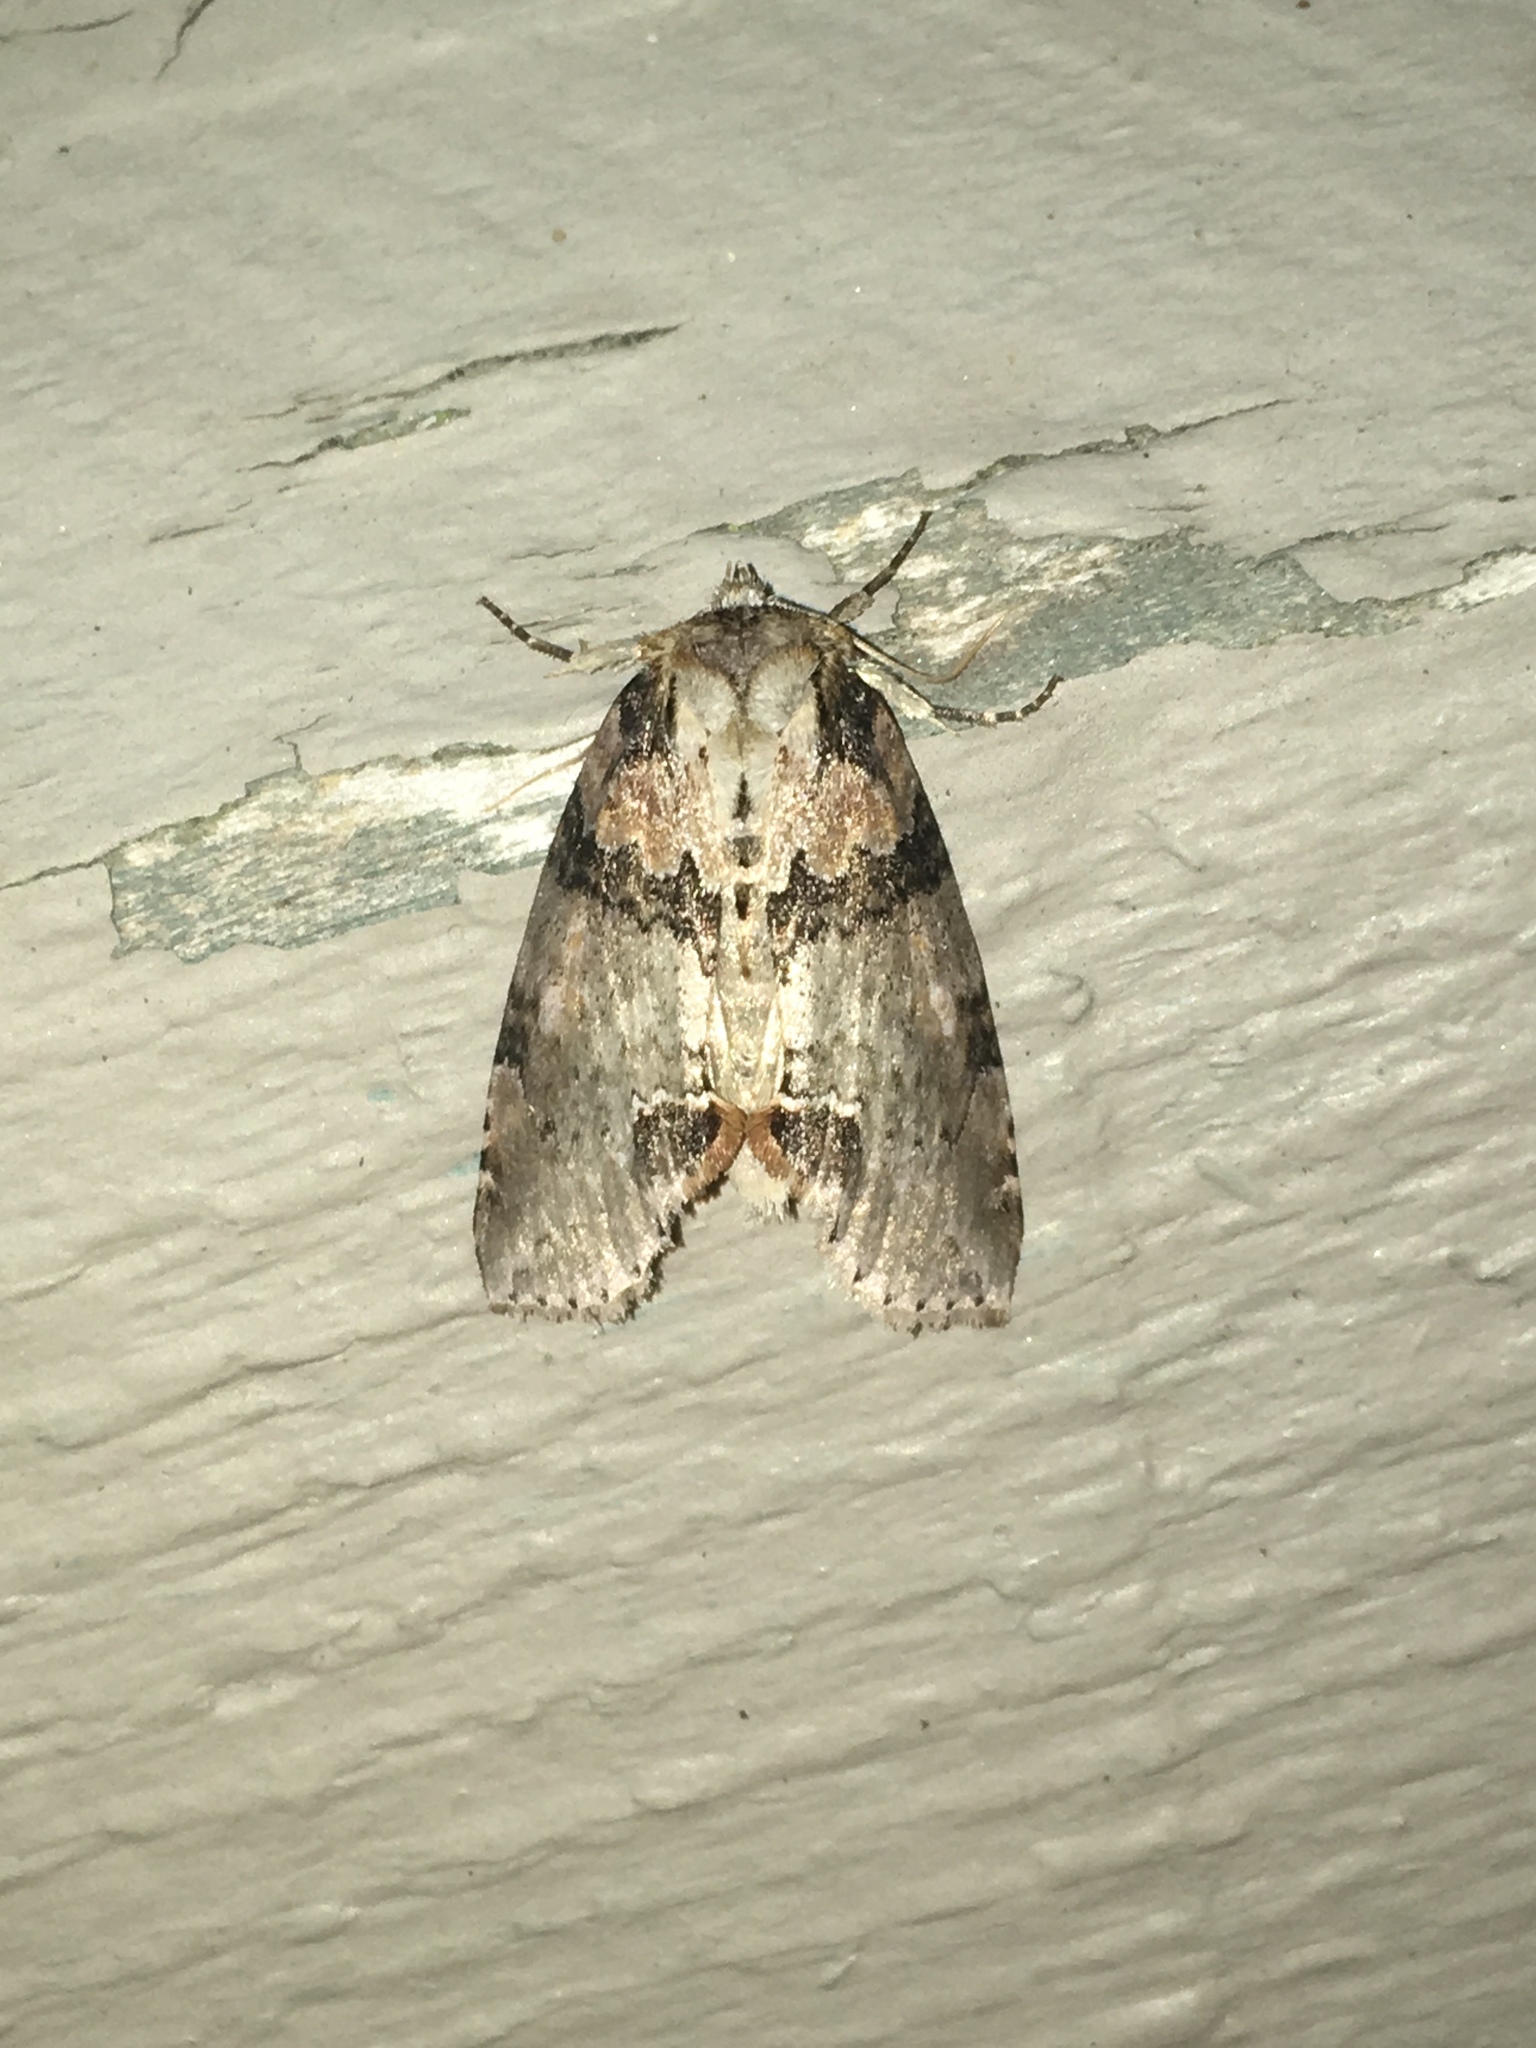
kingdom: Animalia
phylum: Arthropoda
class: Insecta
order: Lepidoptera
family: Drepanidae
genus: Pseudothyatira
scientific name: Pseudothyatira cymatophoroides
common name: Tufted thyatirid moth
